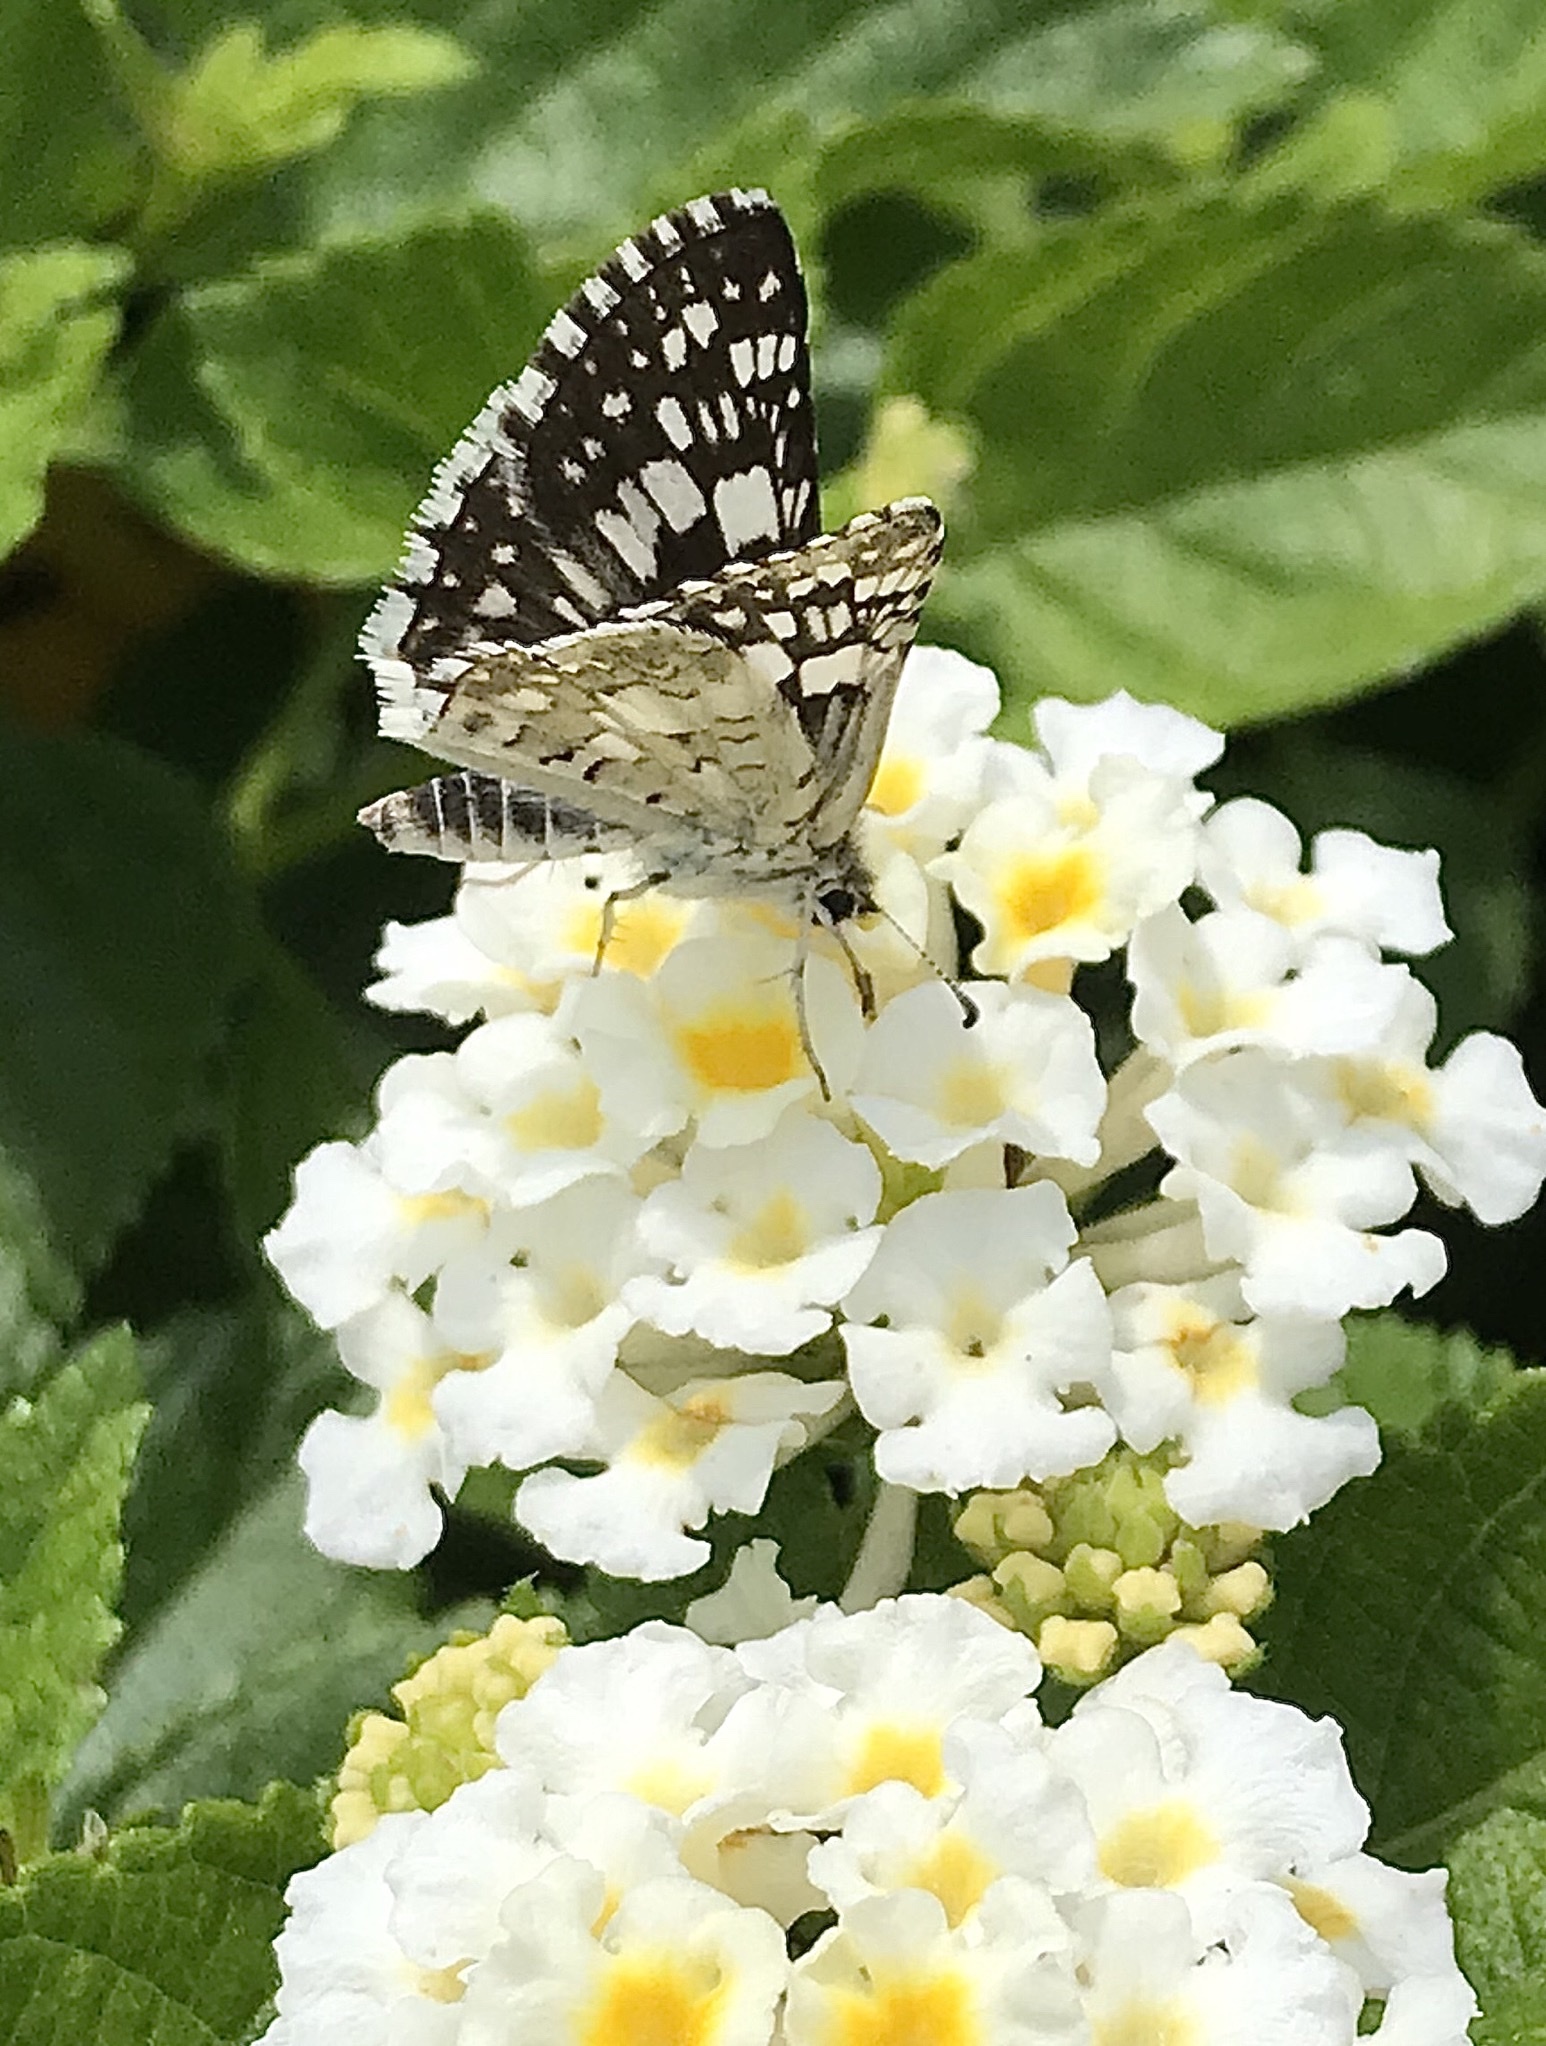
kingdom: Animalia
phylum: Arthropoda
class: Insecta
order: Lepidoptera
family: Hesperiidae
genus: Burnsius
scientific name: Burnsius albezens
